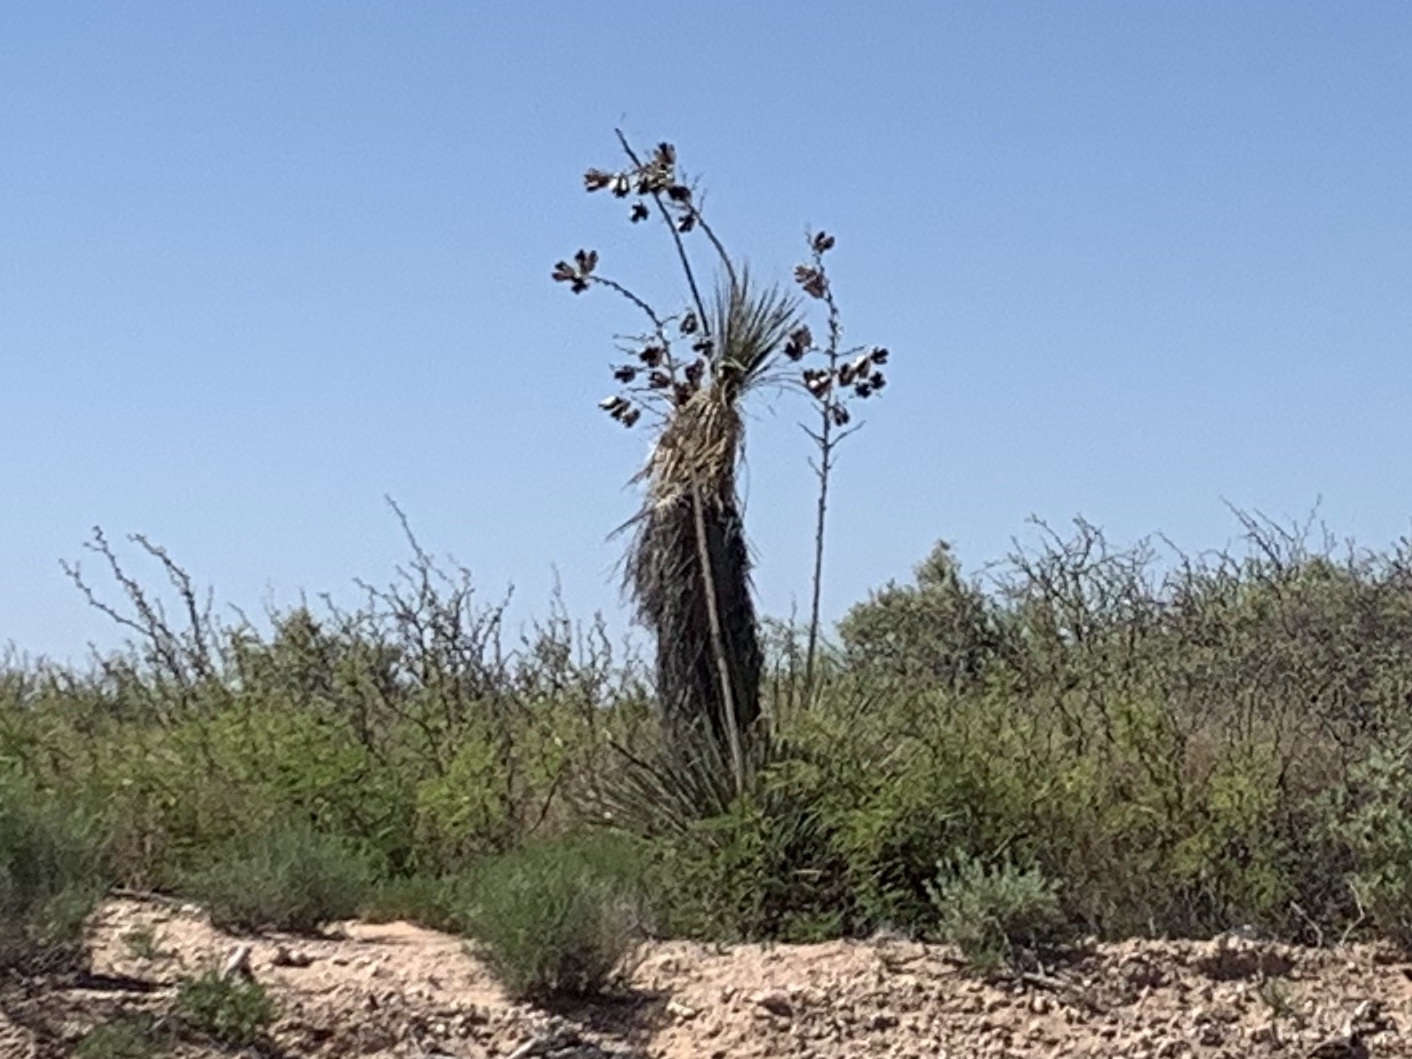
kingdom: Plantae
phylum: Tracheophyta
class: Liliopsida
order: Asparagales
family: Asparagaceae
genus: Yucca
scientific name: Yucca elata
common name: Palmella
